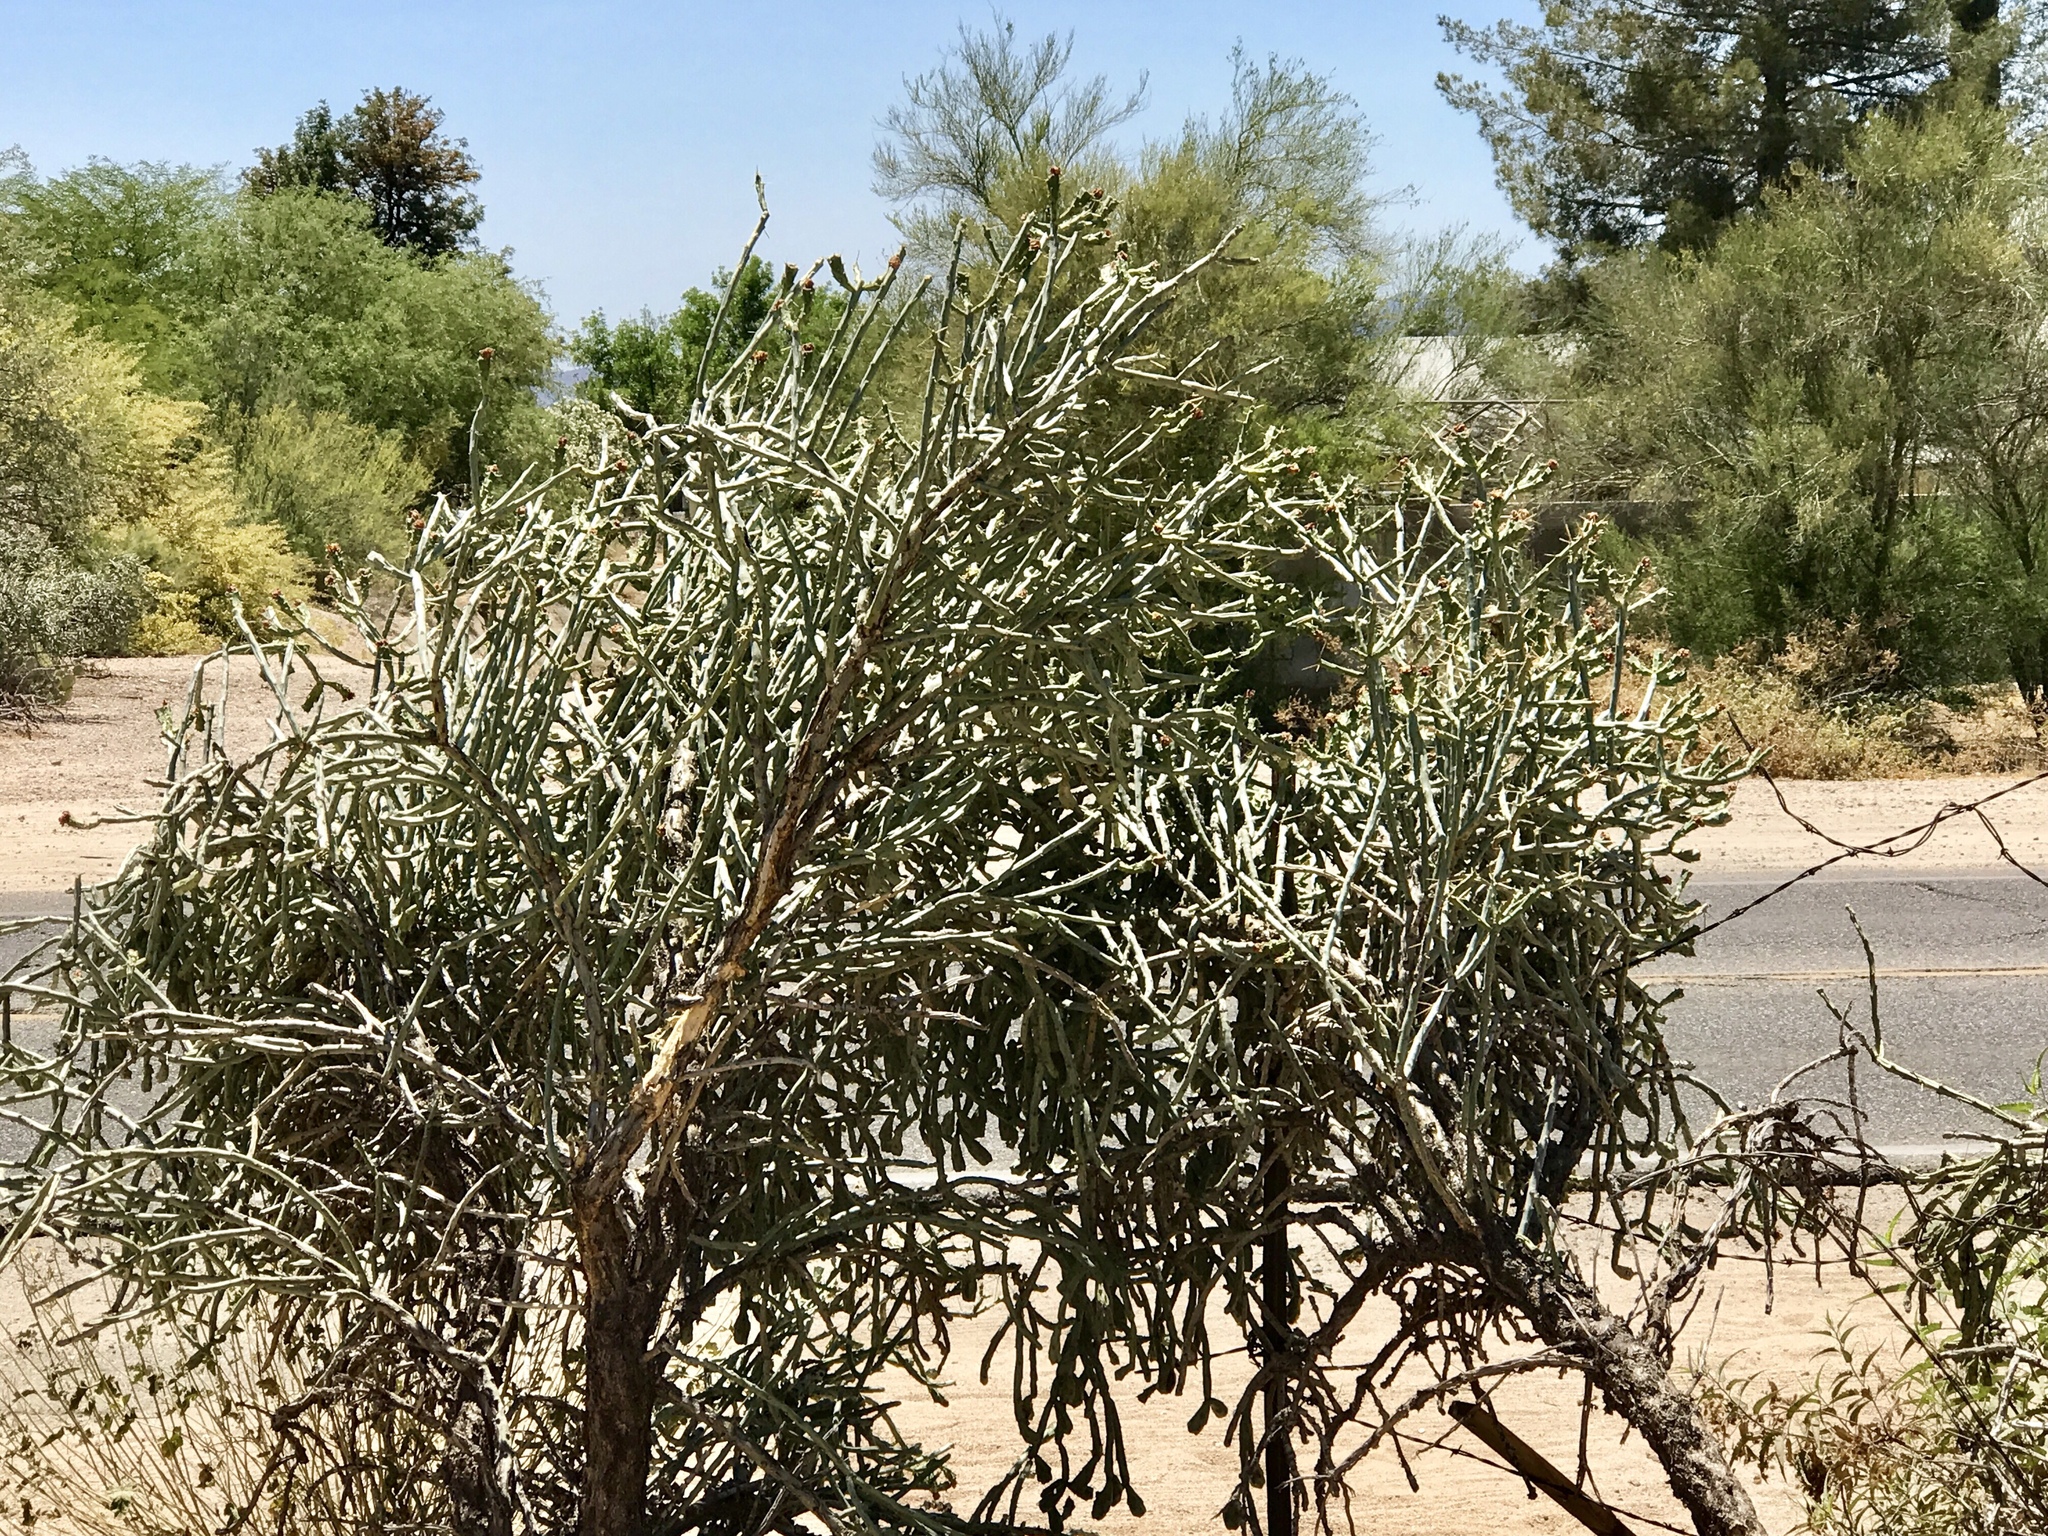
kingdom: Plantae
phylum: Tracheophyta
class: Magnoliopsida
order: Caryophyllales
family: Cactaceae
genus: Cylindropuntia
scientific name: Cylindropuntia arbuscula
